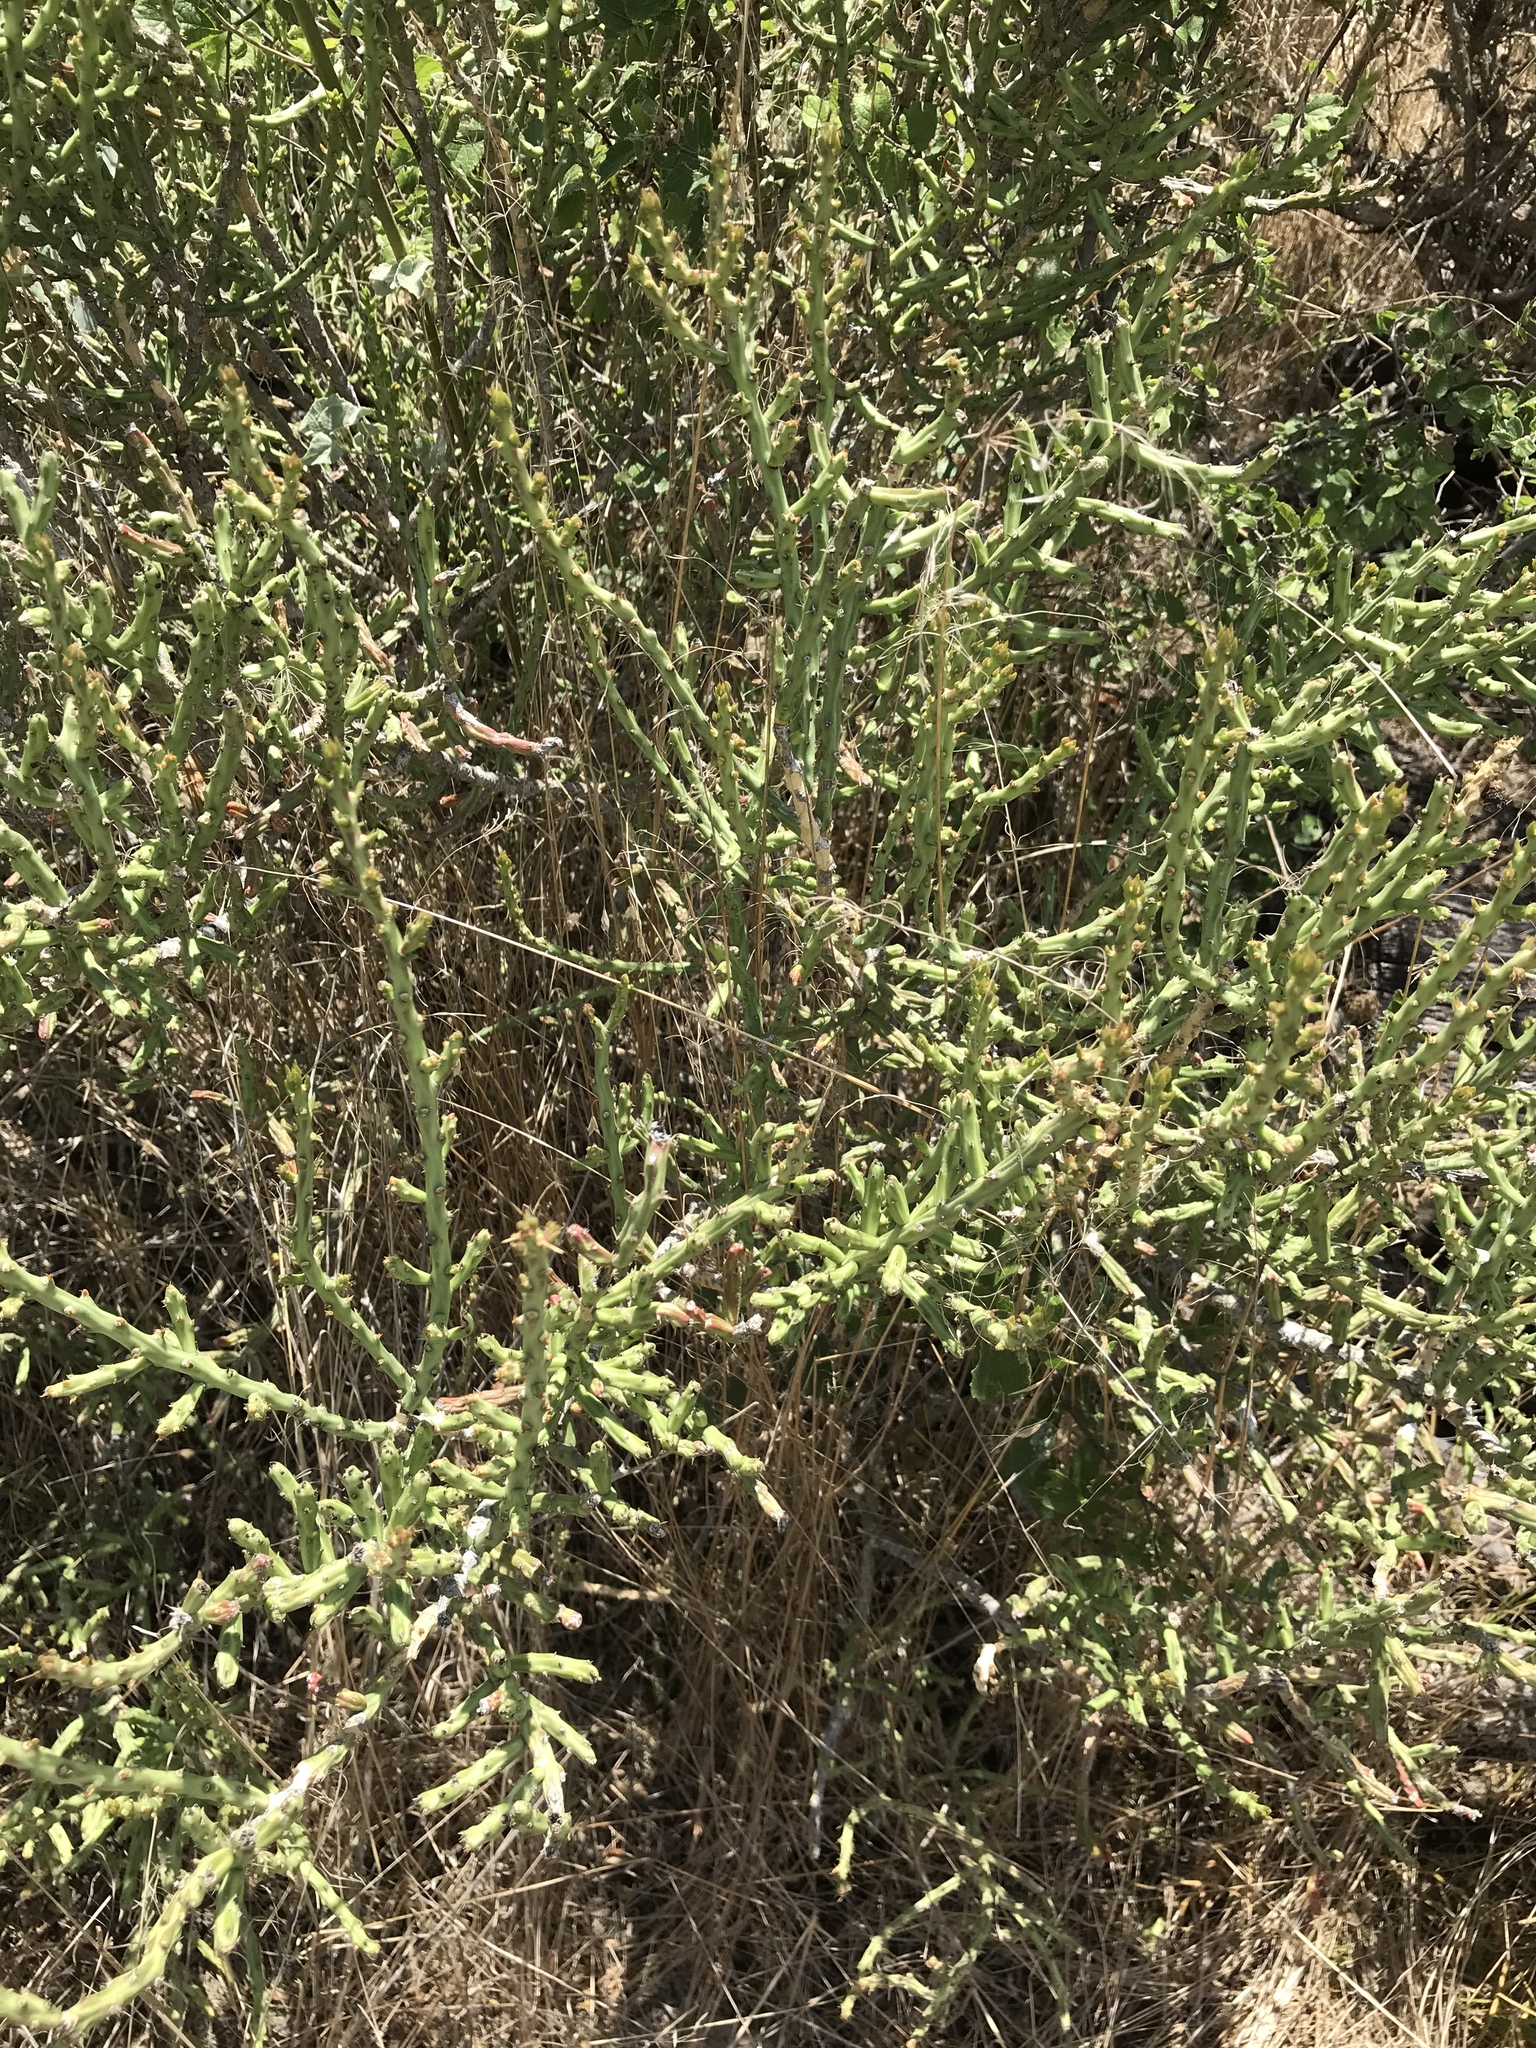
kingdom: Plantae
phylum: Tracheophyta
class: Magnoliopsida
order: Caryophyllales
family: Cactaceae
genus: Cylindropuntia
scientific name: Cylindropuntia leptocaulis
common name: Christmas cactus
